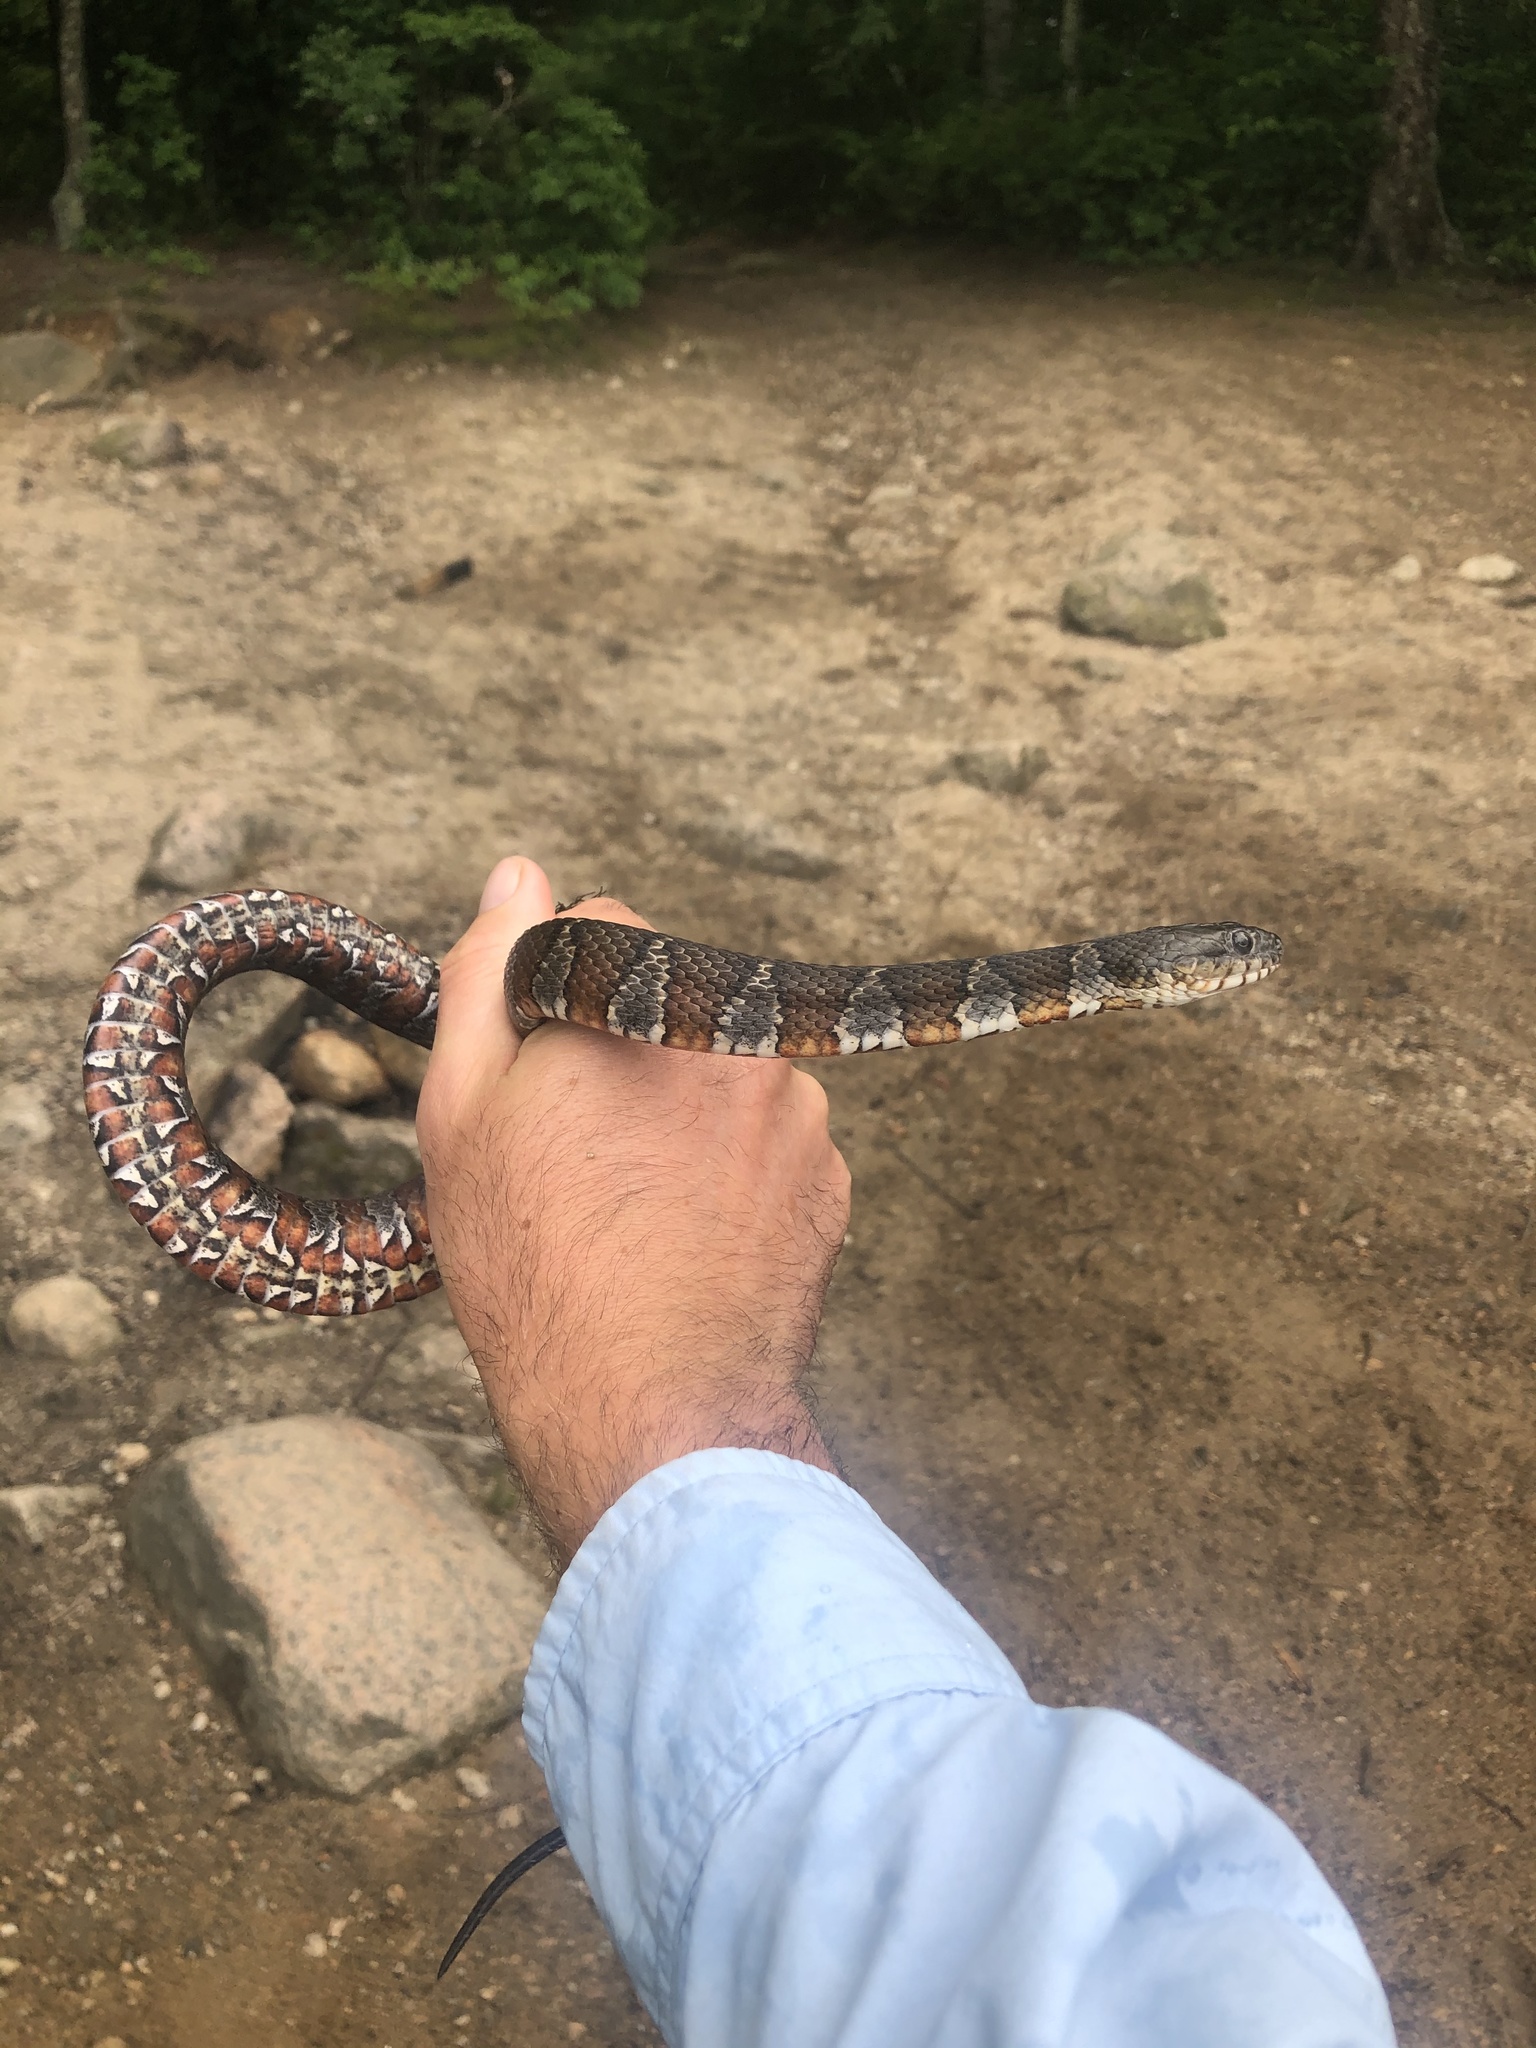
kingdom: Animalia
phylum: Chordata
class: Squamata
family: Colubridae
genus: Nerodia
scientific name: Nerodia sipedon
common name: Northern water snake
